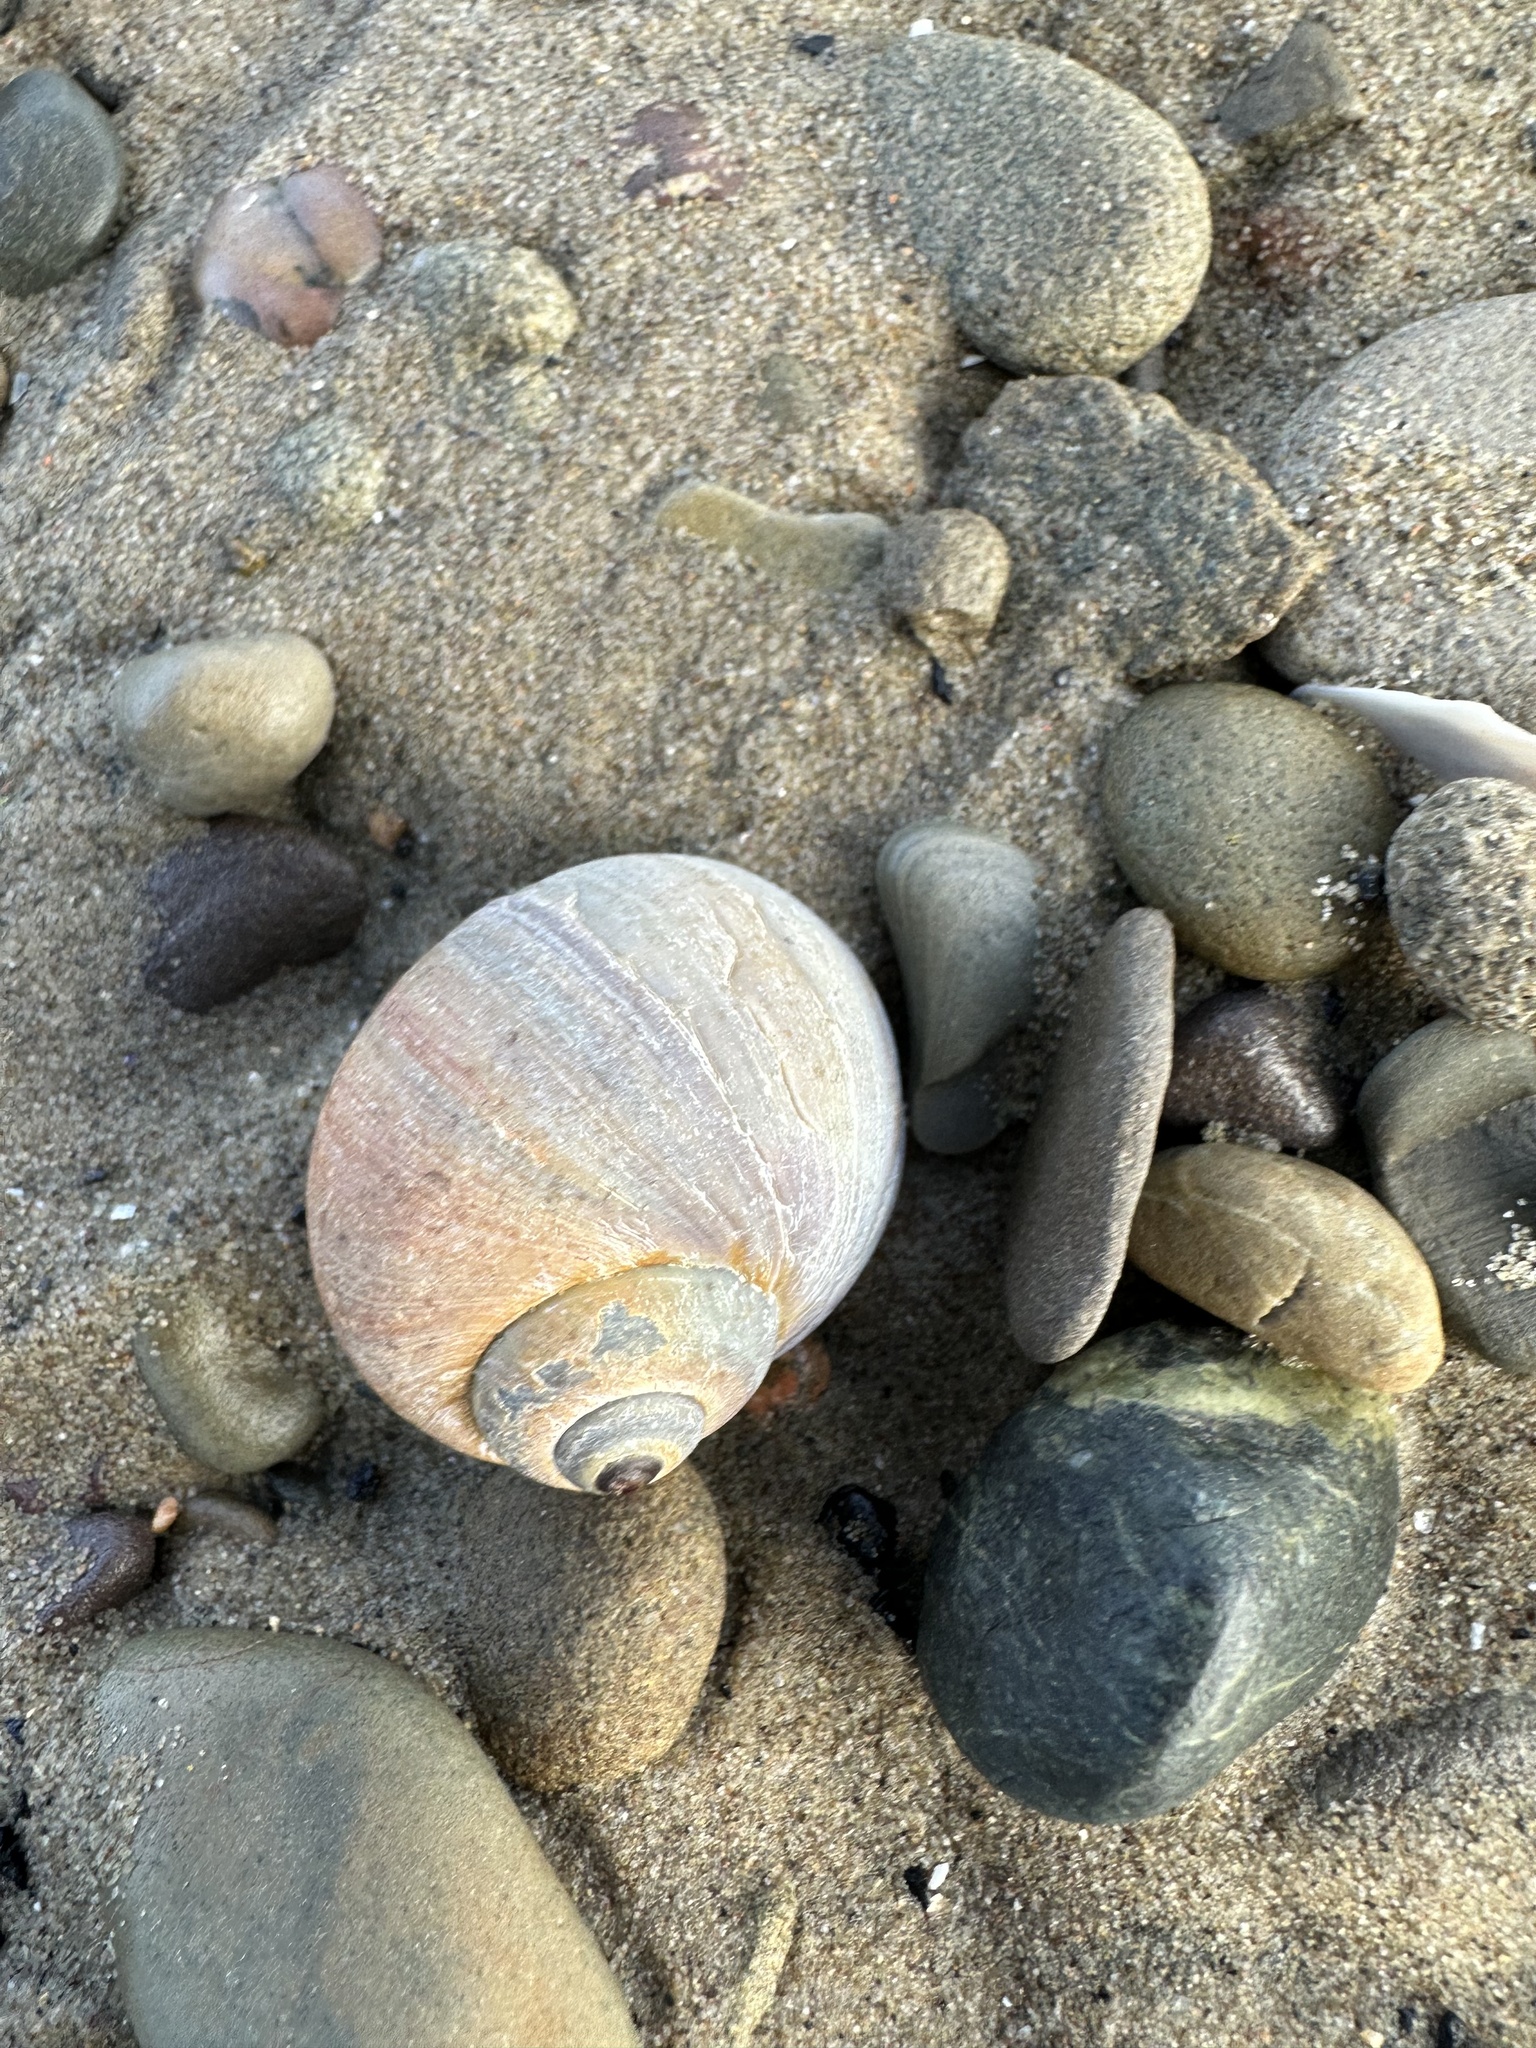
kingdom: Animalia
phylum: Mollusca
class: Gastropoda
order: Littorinimorpha
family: Naticidae
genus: Euspira
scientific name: Euspira heros
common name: Common northern moonsnail
